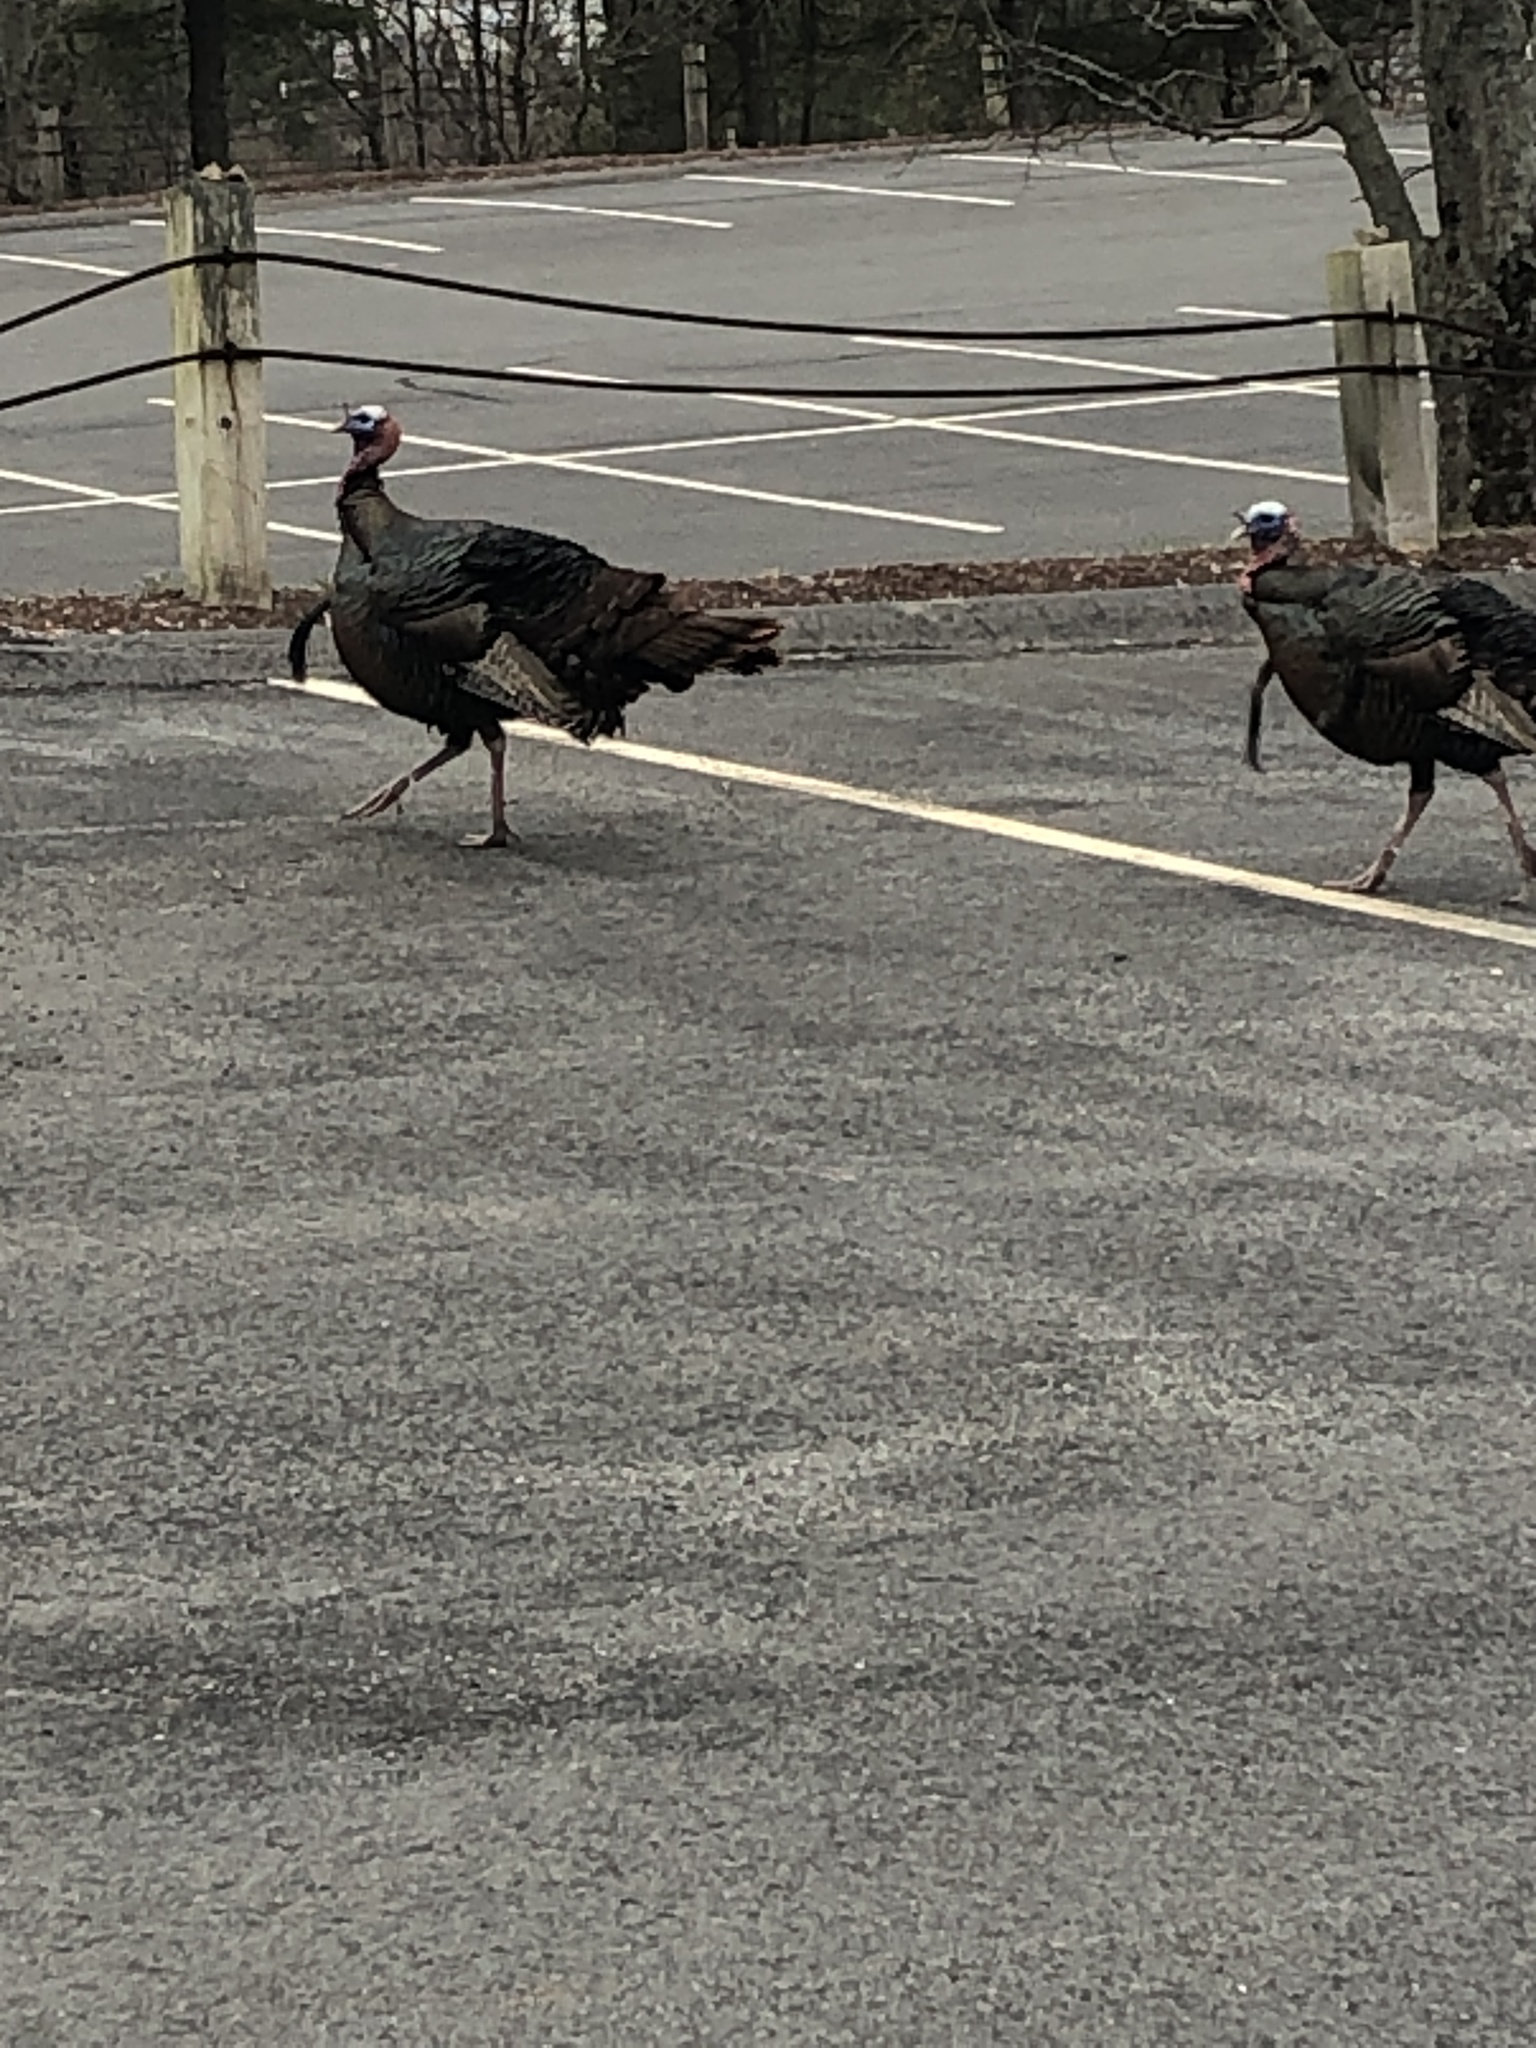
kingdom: Animalia
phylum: Chordata
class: Aves
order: Galliformes
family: Phasianidae
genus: Meleagris
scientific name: Meleagris gallopavo
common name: Wild turkey
